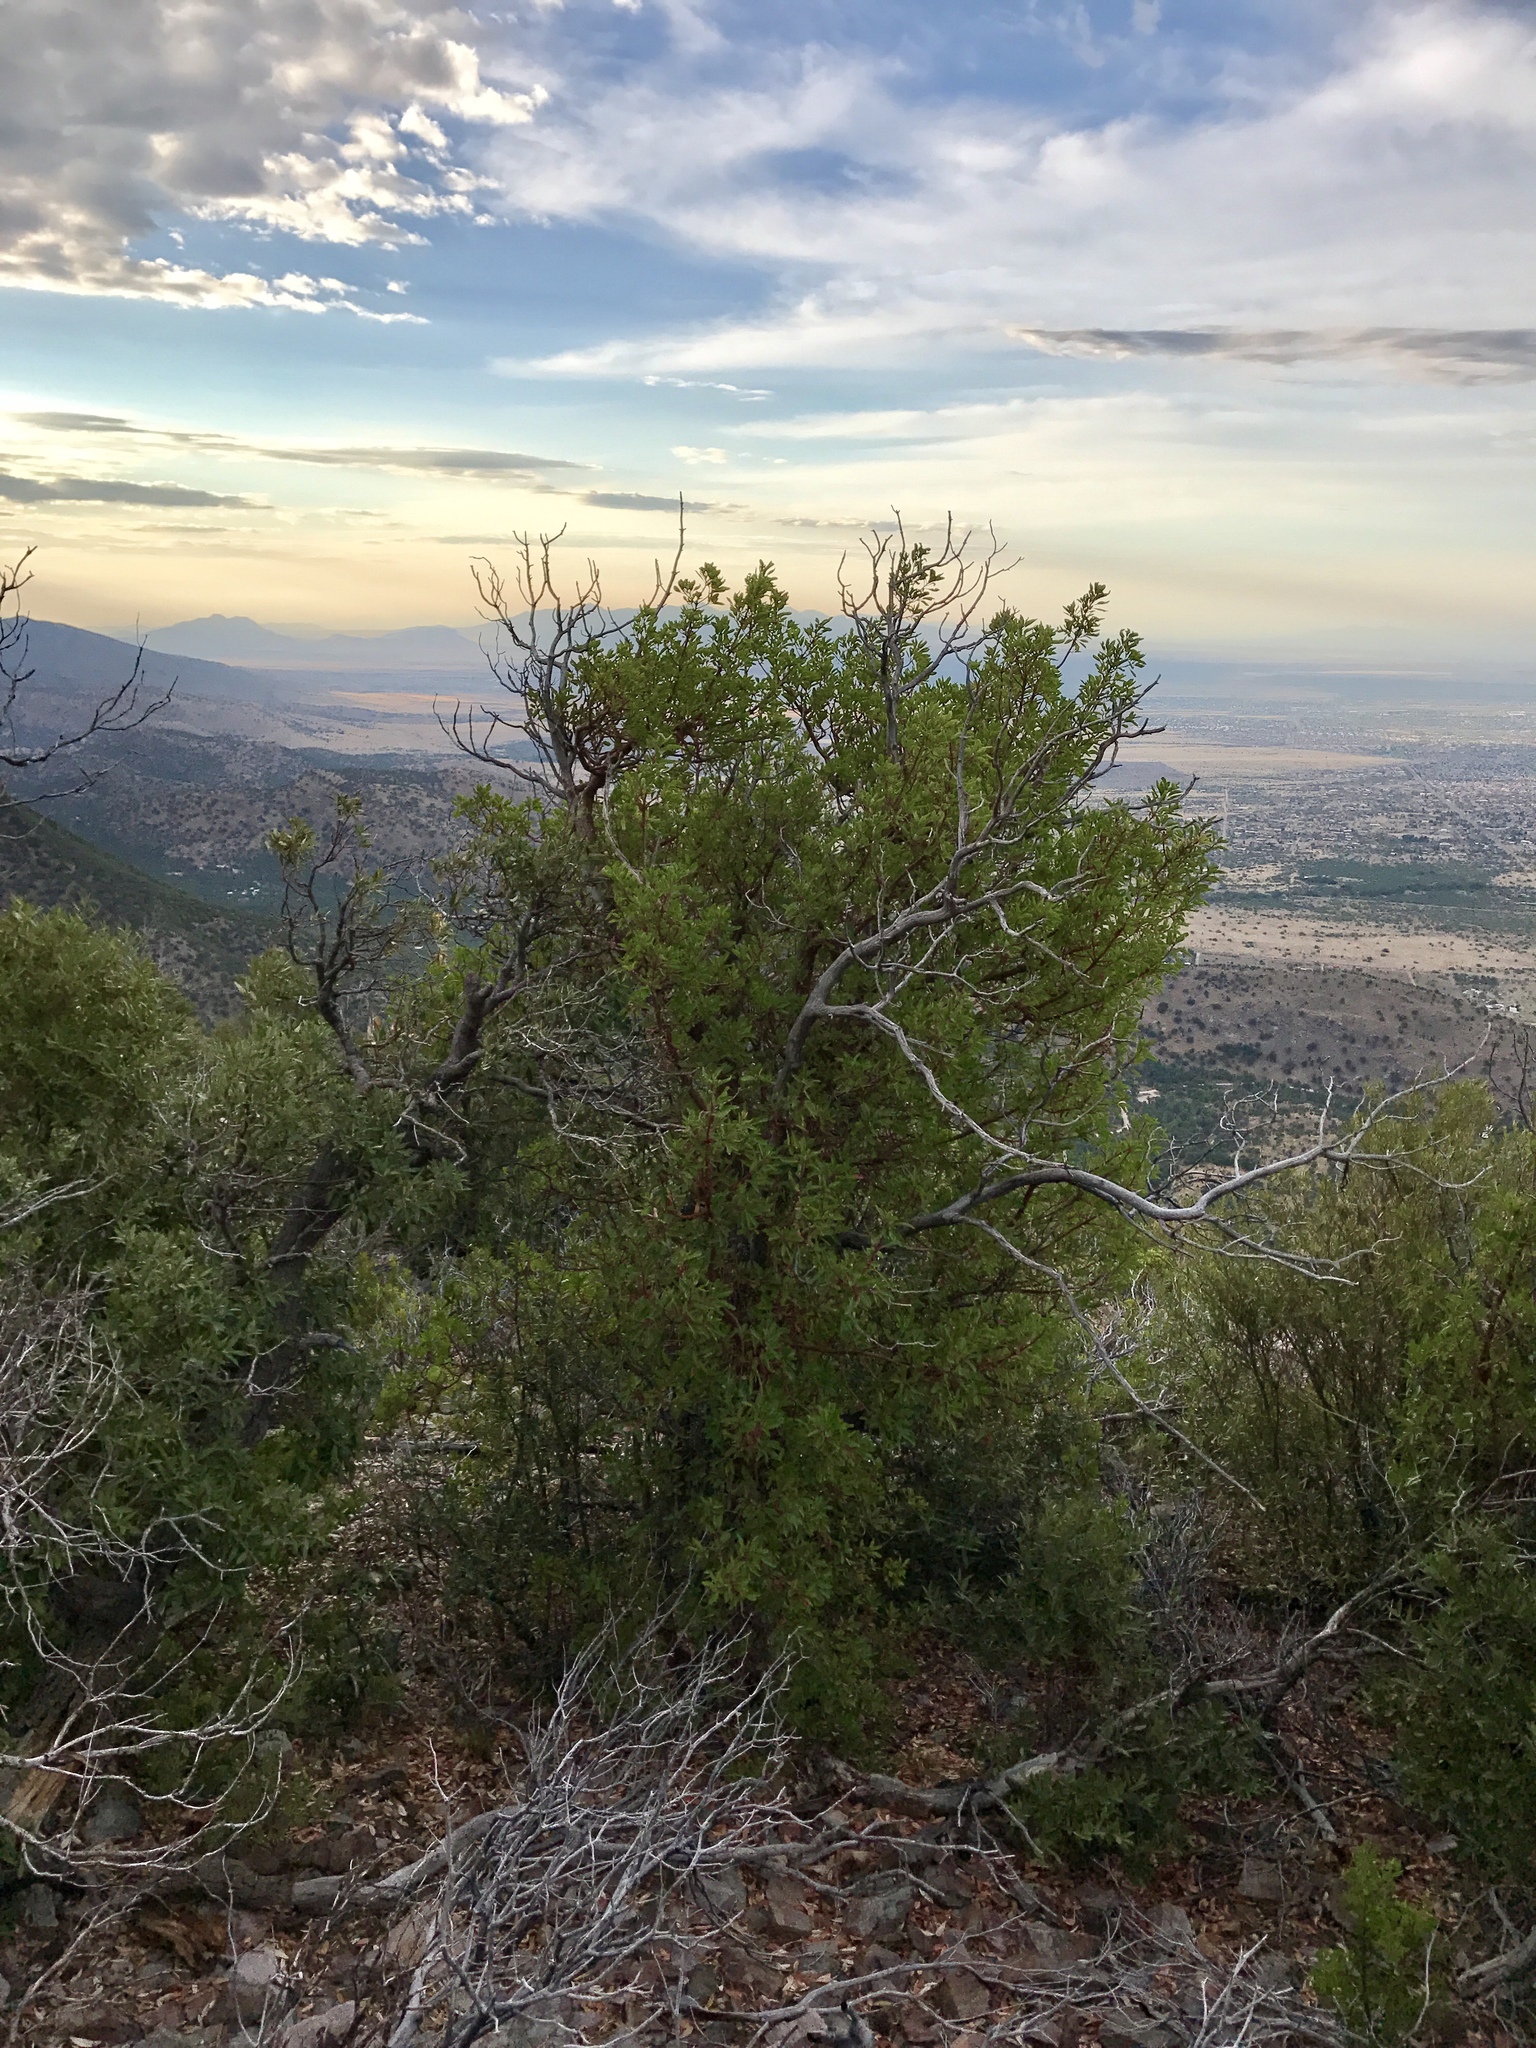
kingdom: Plantae
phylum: Tracheophyta
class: Magnoliopsida
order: Ericales
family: Ericaceae
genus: Arbutus
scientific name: Arbutus arizonica
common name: Arizona madrone
